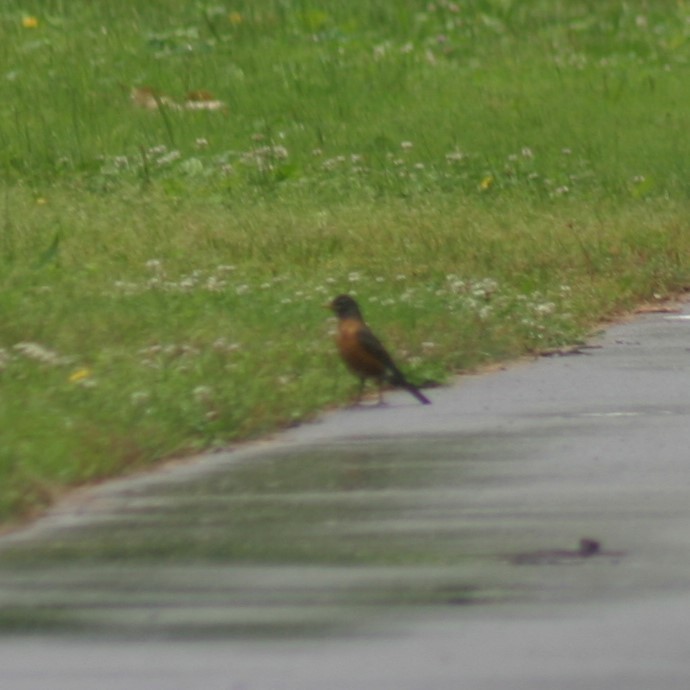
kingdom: Animalia
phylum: Chordata
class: Aves
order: Passeriformes
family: Turdidae
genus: Turdus
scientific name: Turdus migratorius
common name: American robin
